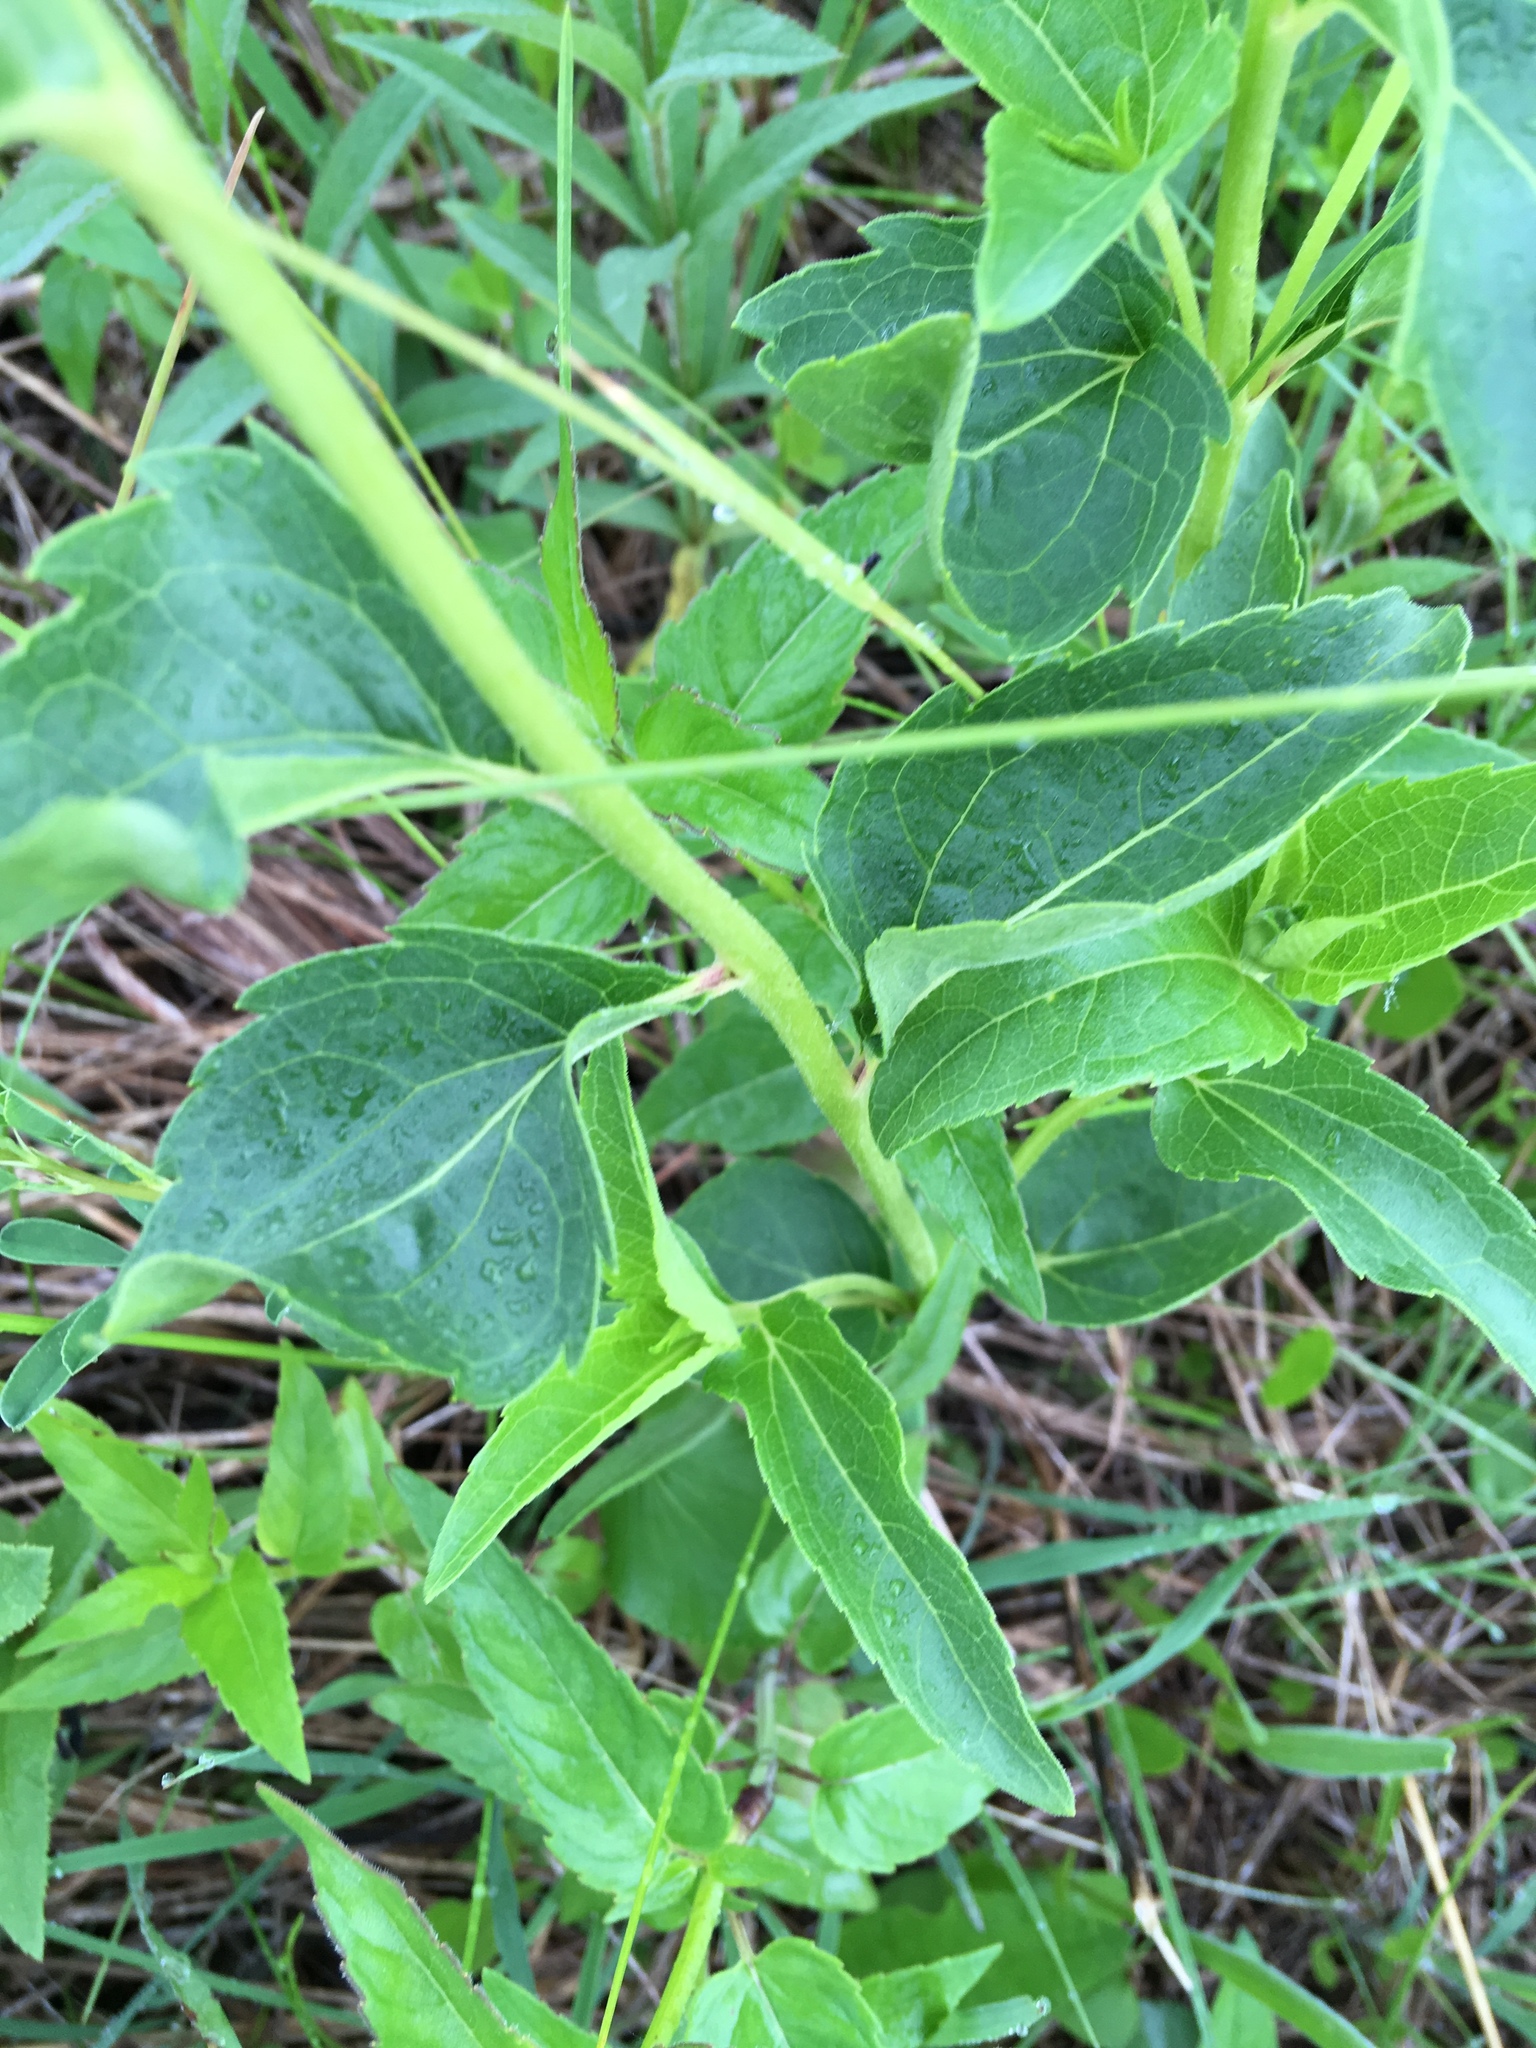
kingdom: Plantae
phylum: Tracheophyta
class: Magnoliopsida
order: Asterales
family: Asteraceae
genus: Heliopsis
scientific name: Heliopsis helianthoides
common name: False sunflower
